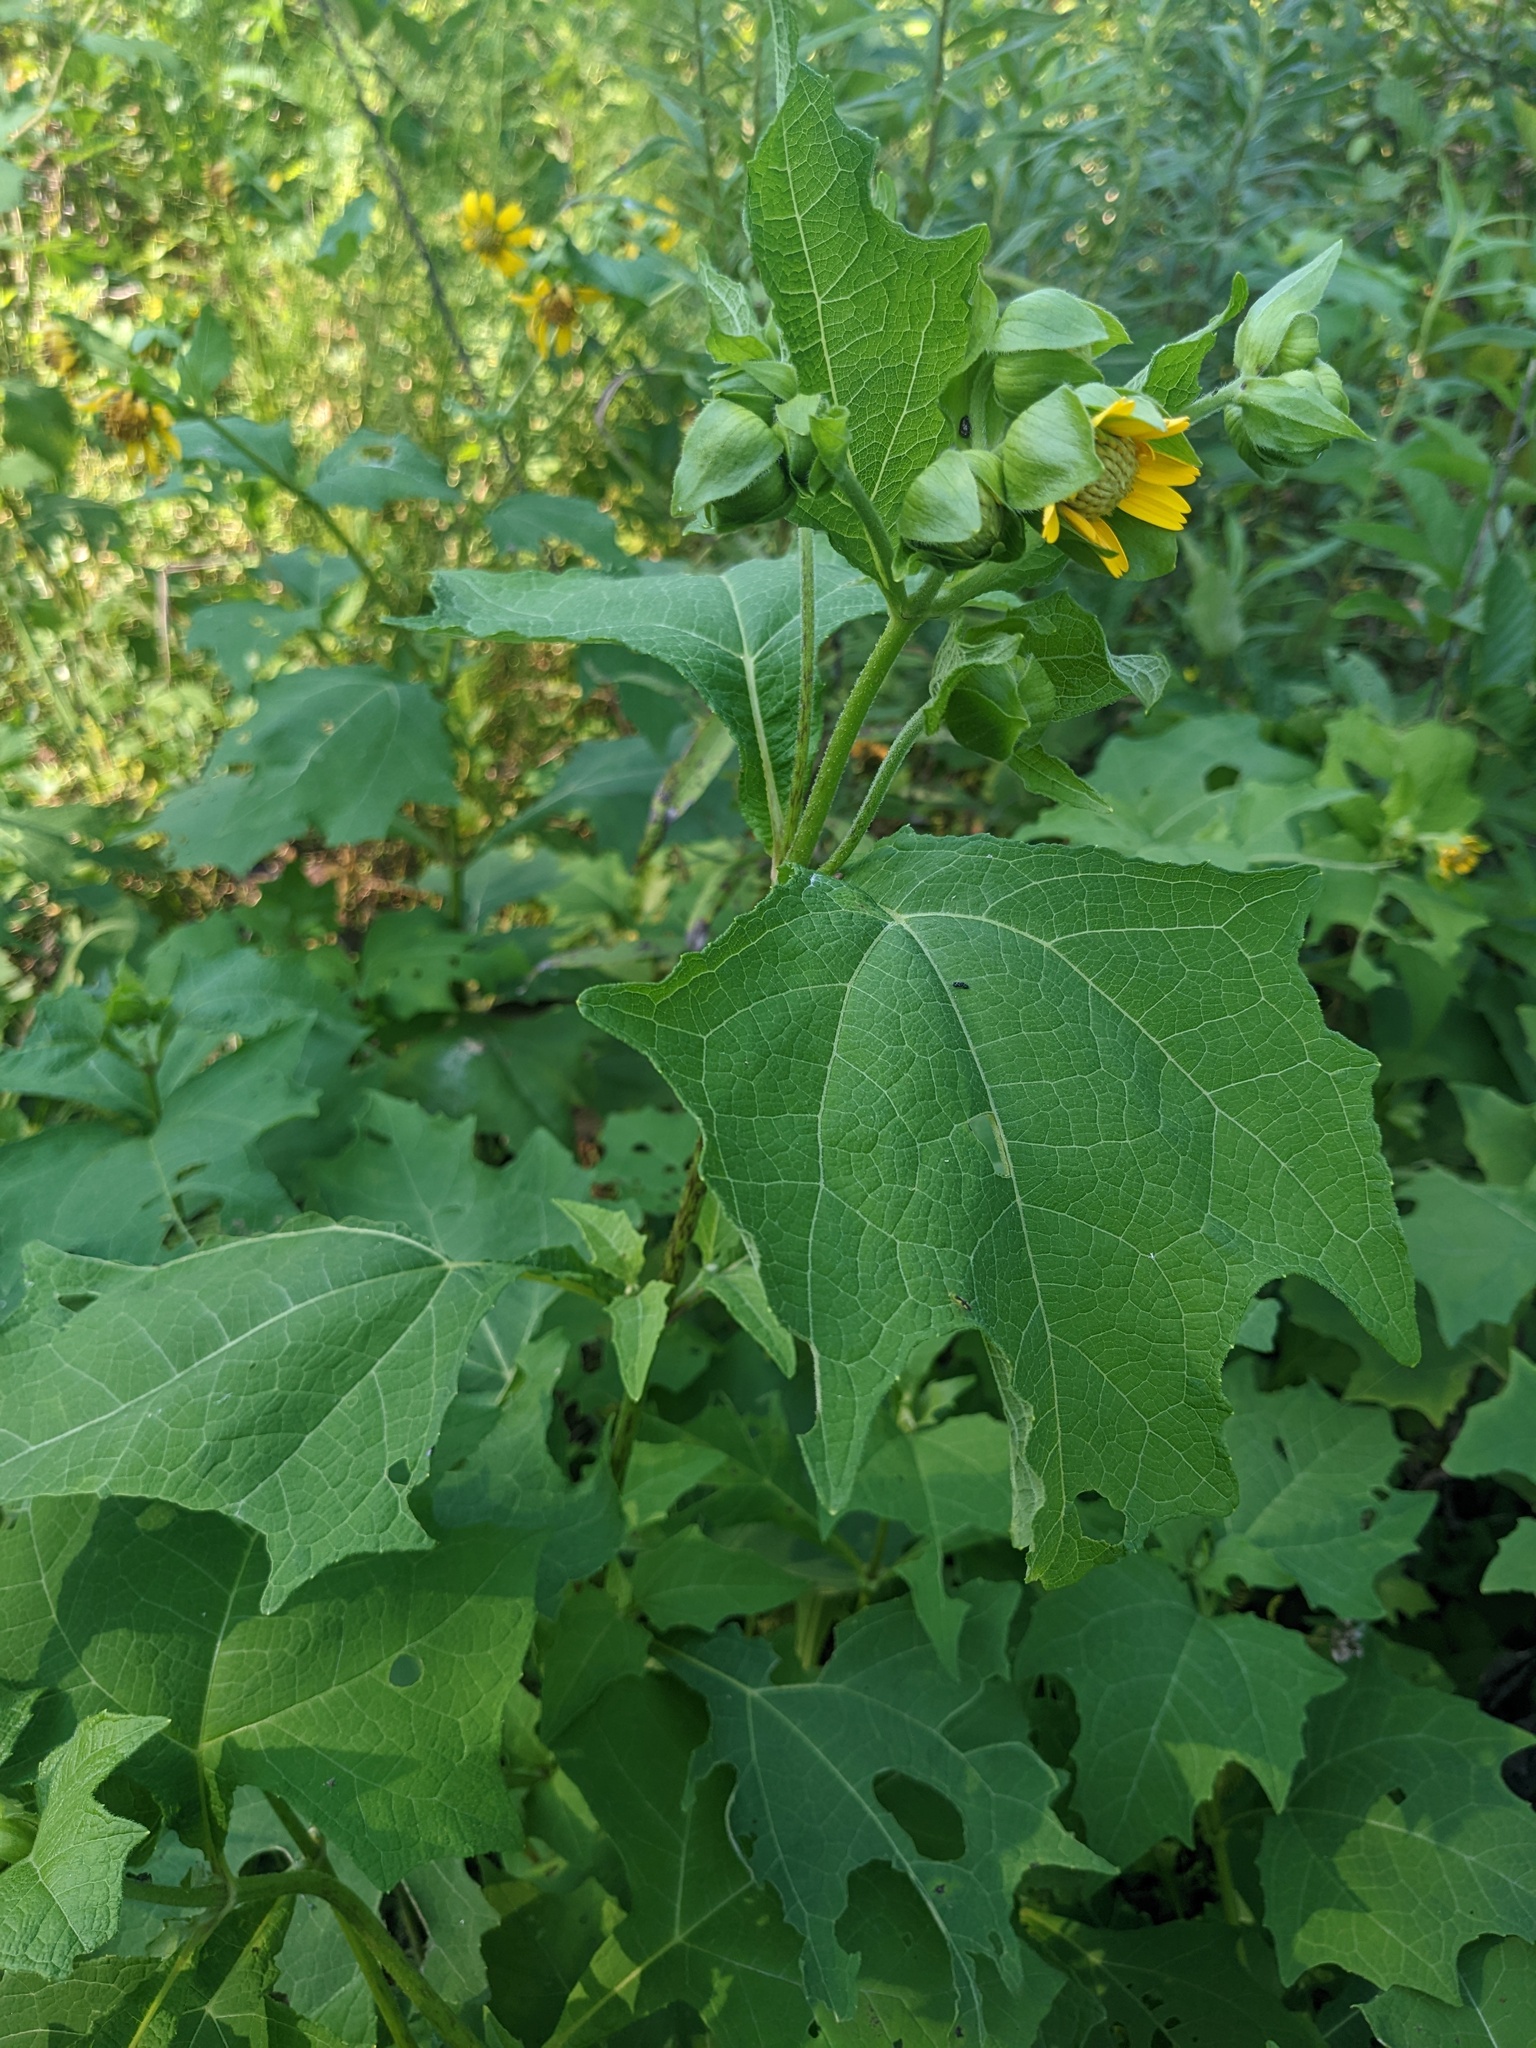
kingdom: Plantae
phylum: Tracheophyta
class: Magnoliopsida
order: Asterales
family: Asteraceae
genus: Smallanthus
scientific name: Smallanthus uvedalia
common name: Bear's-foot
